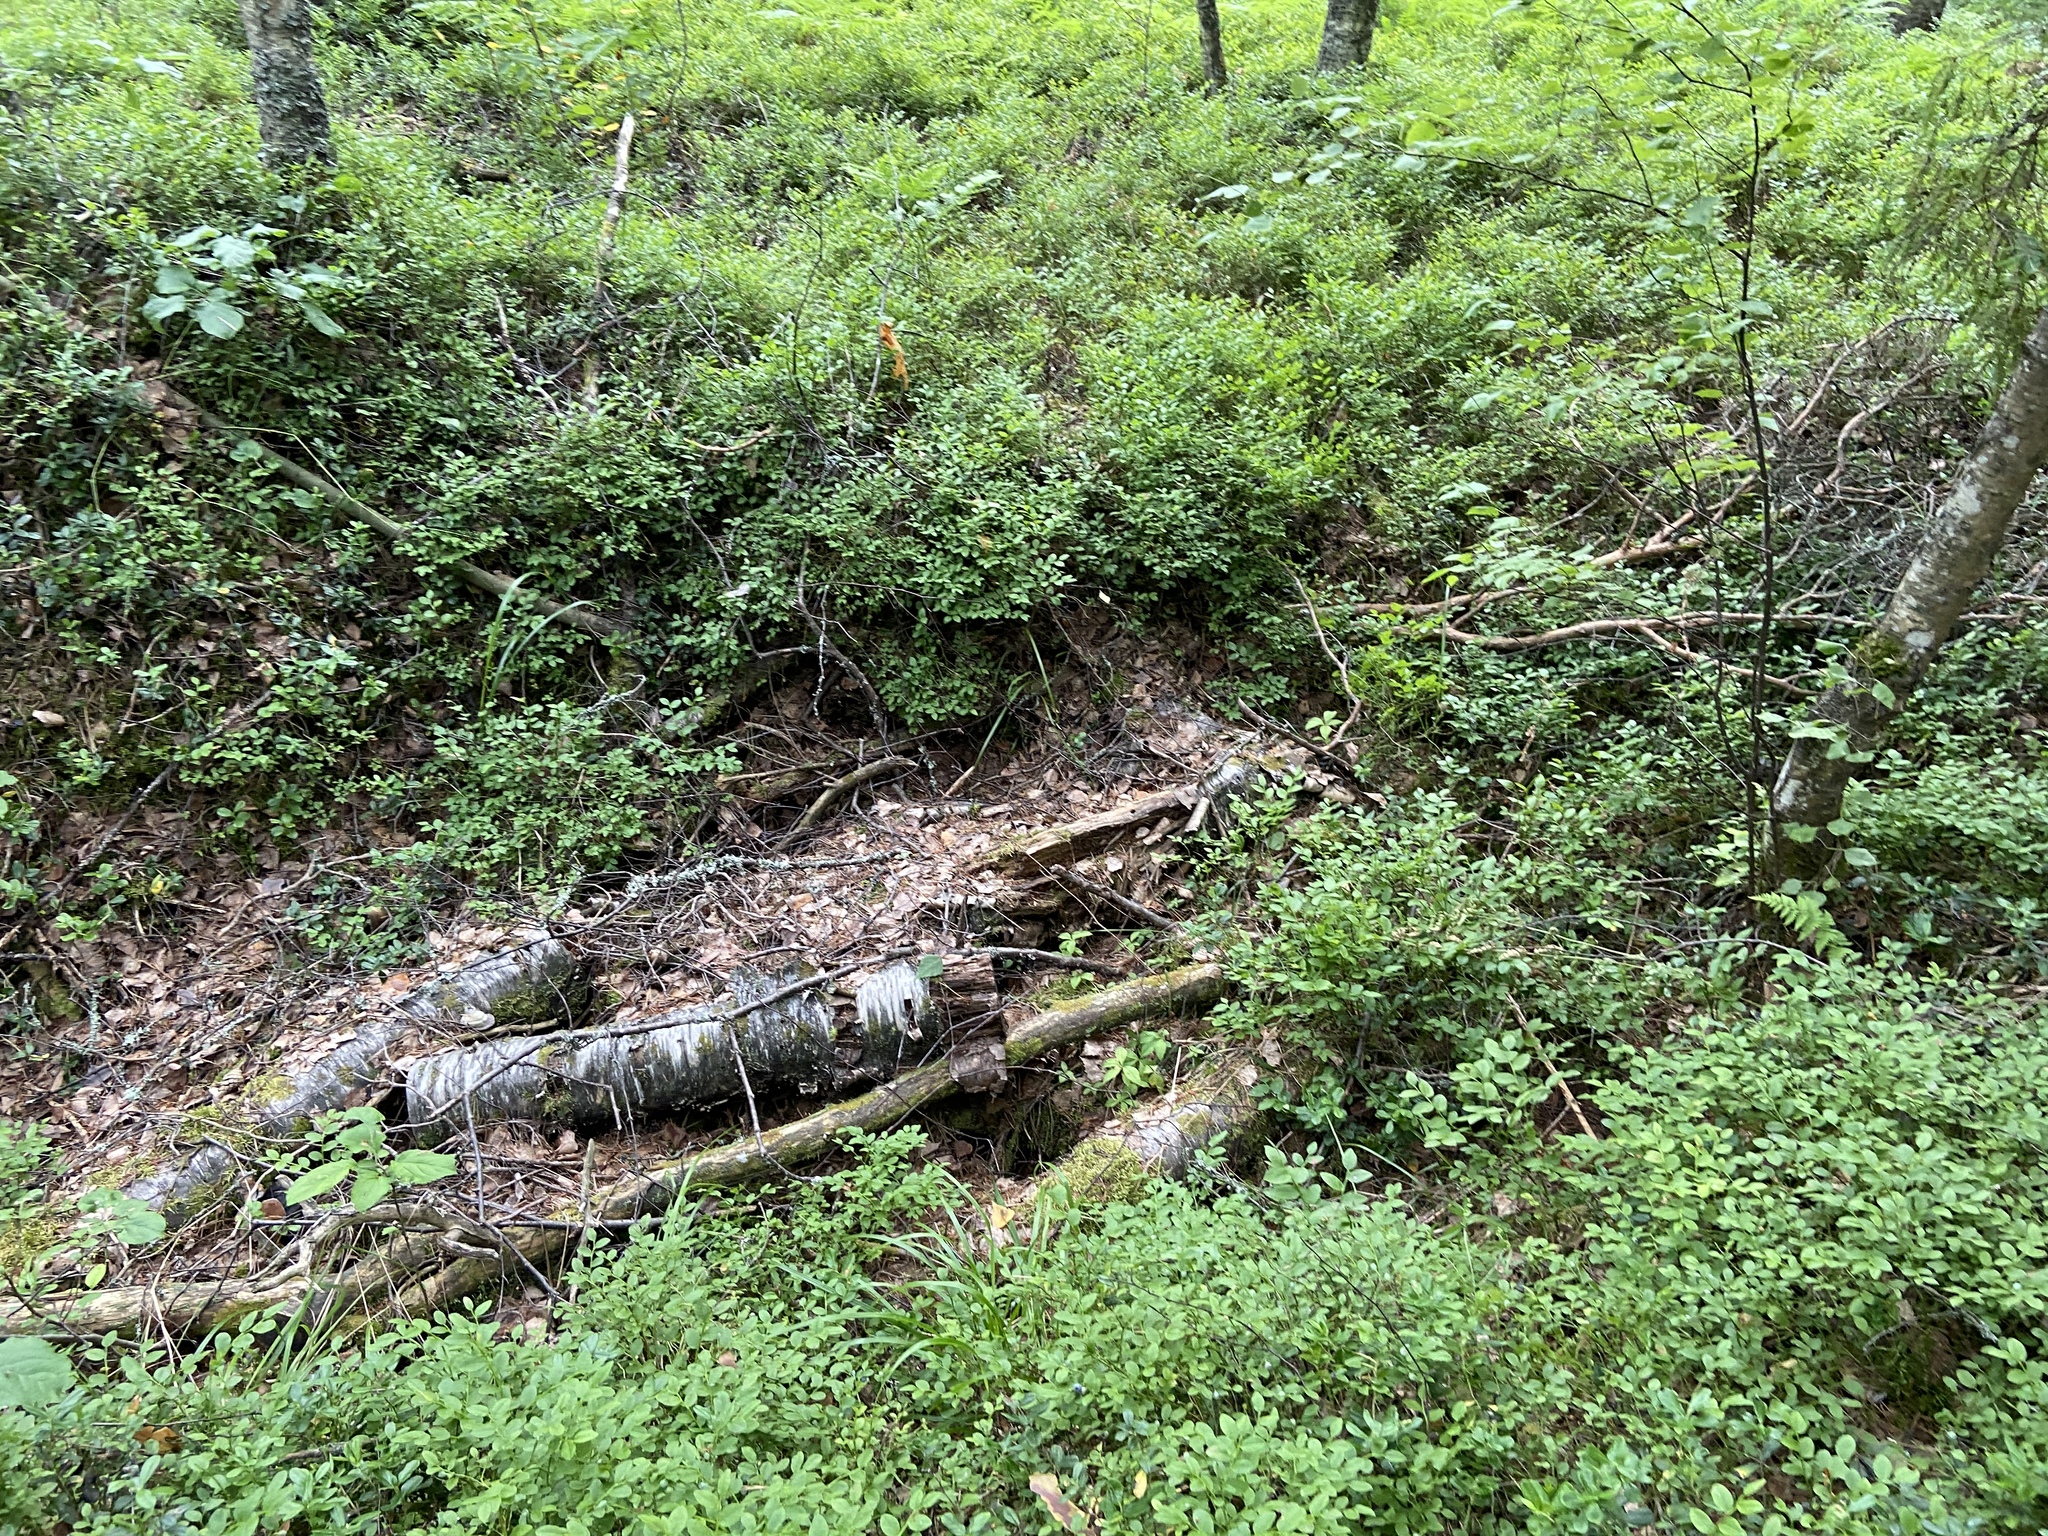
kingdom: Plantae
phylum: Tracheophyta
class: Magnoliopsida
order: Ericales
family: Ericaceae
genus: Vaccinium
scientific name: Vaccinium myrtillus
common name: Bilberry
